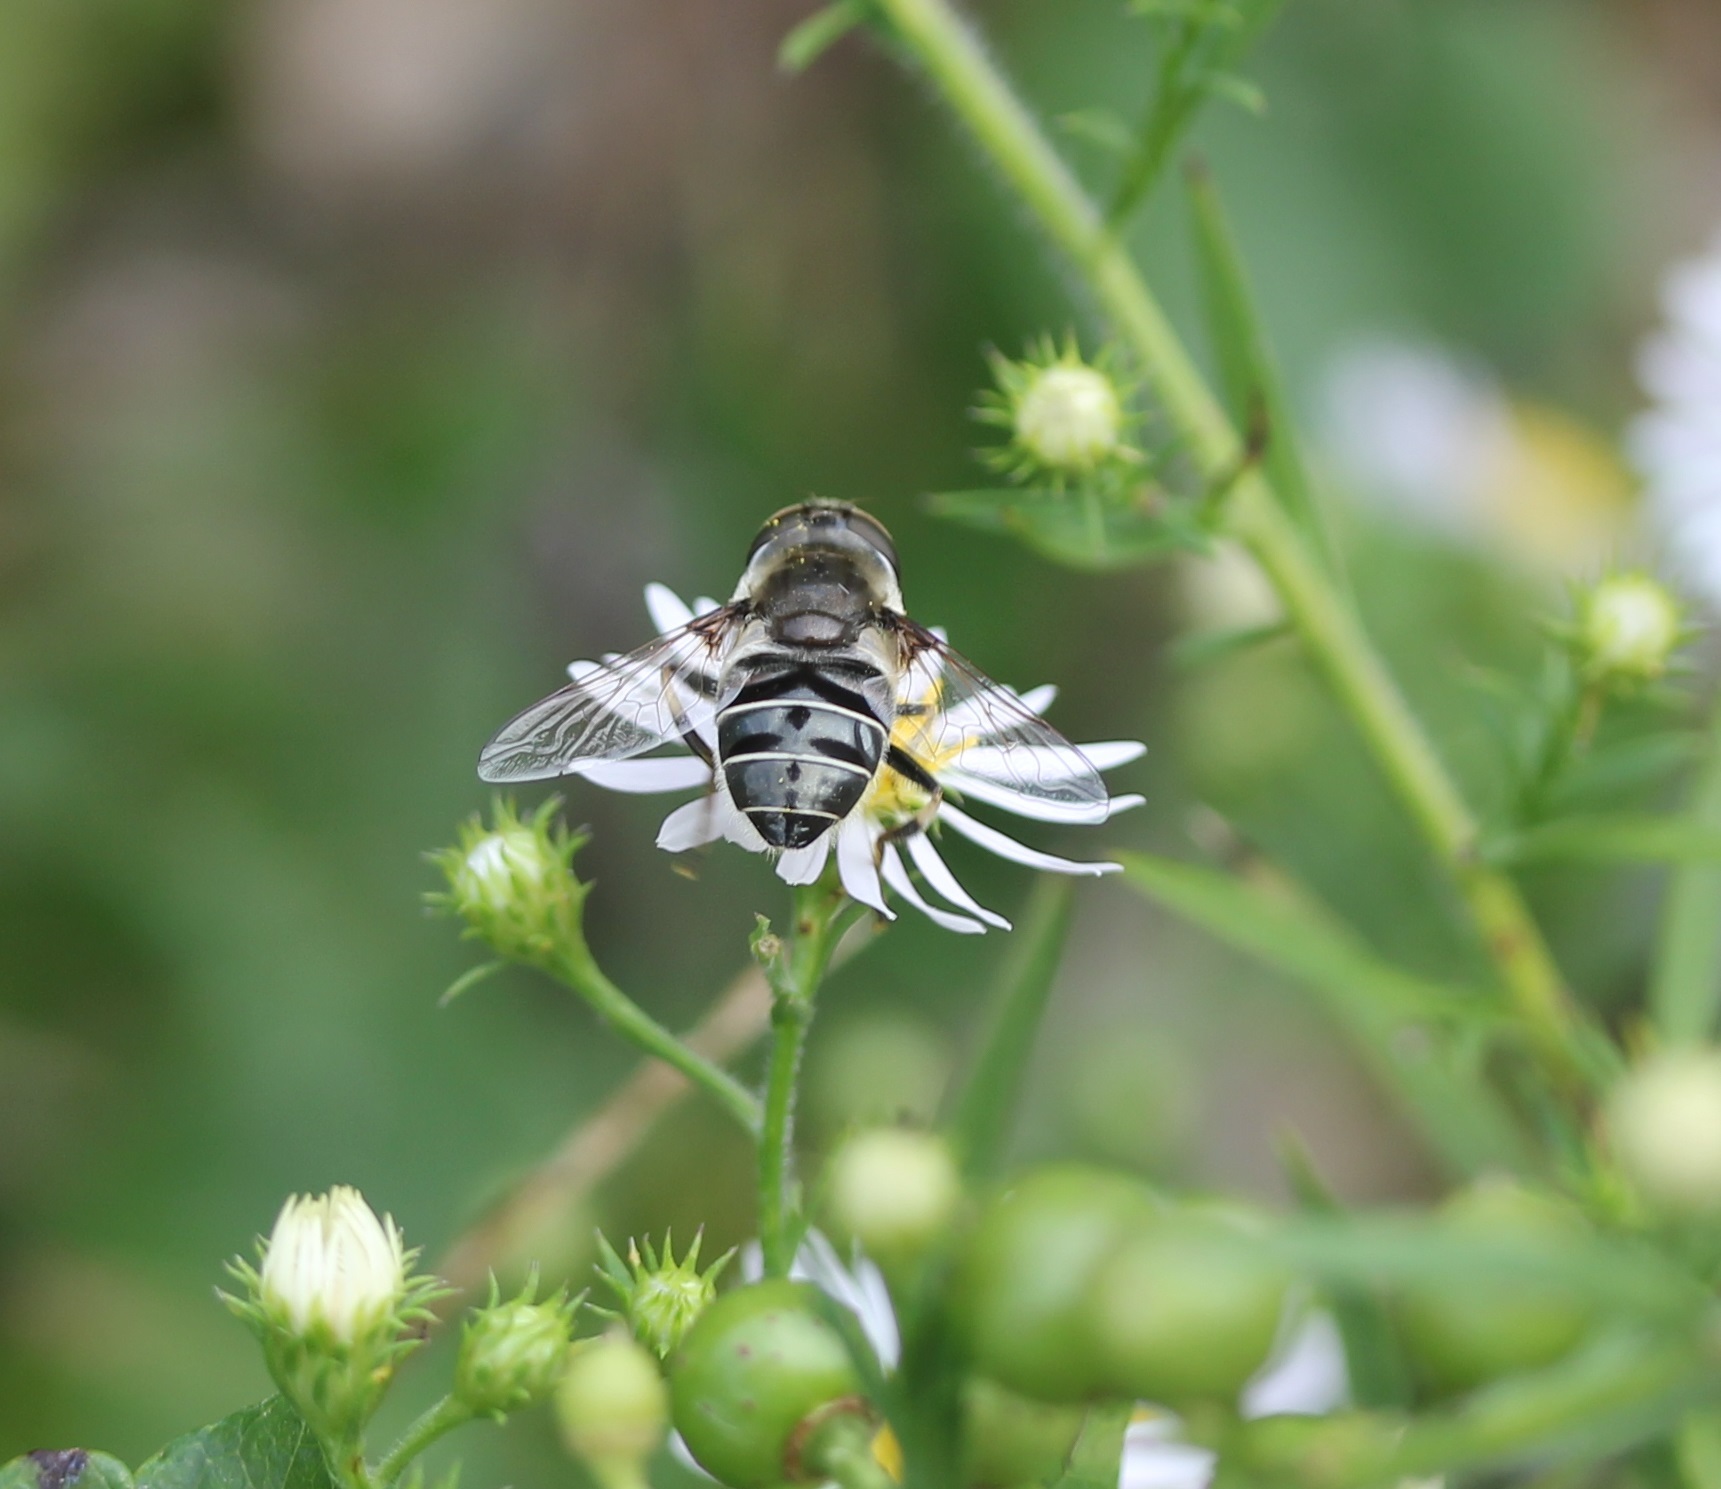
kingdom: Animalia
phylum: Arthropoda
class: Insecta
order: Diptera
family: Syrphidae
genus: Eristalis
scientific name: Eristalis dimidiata
